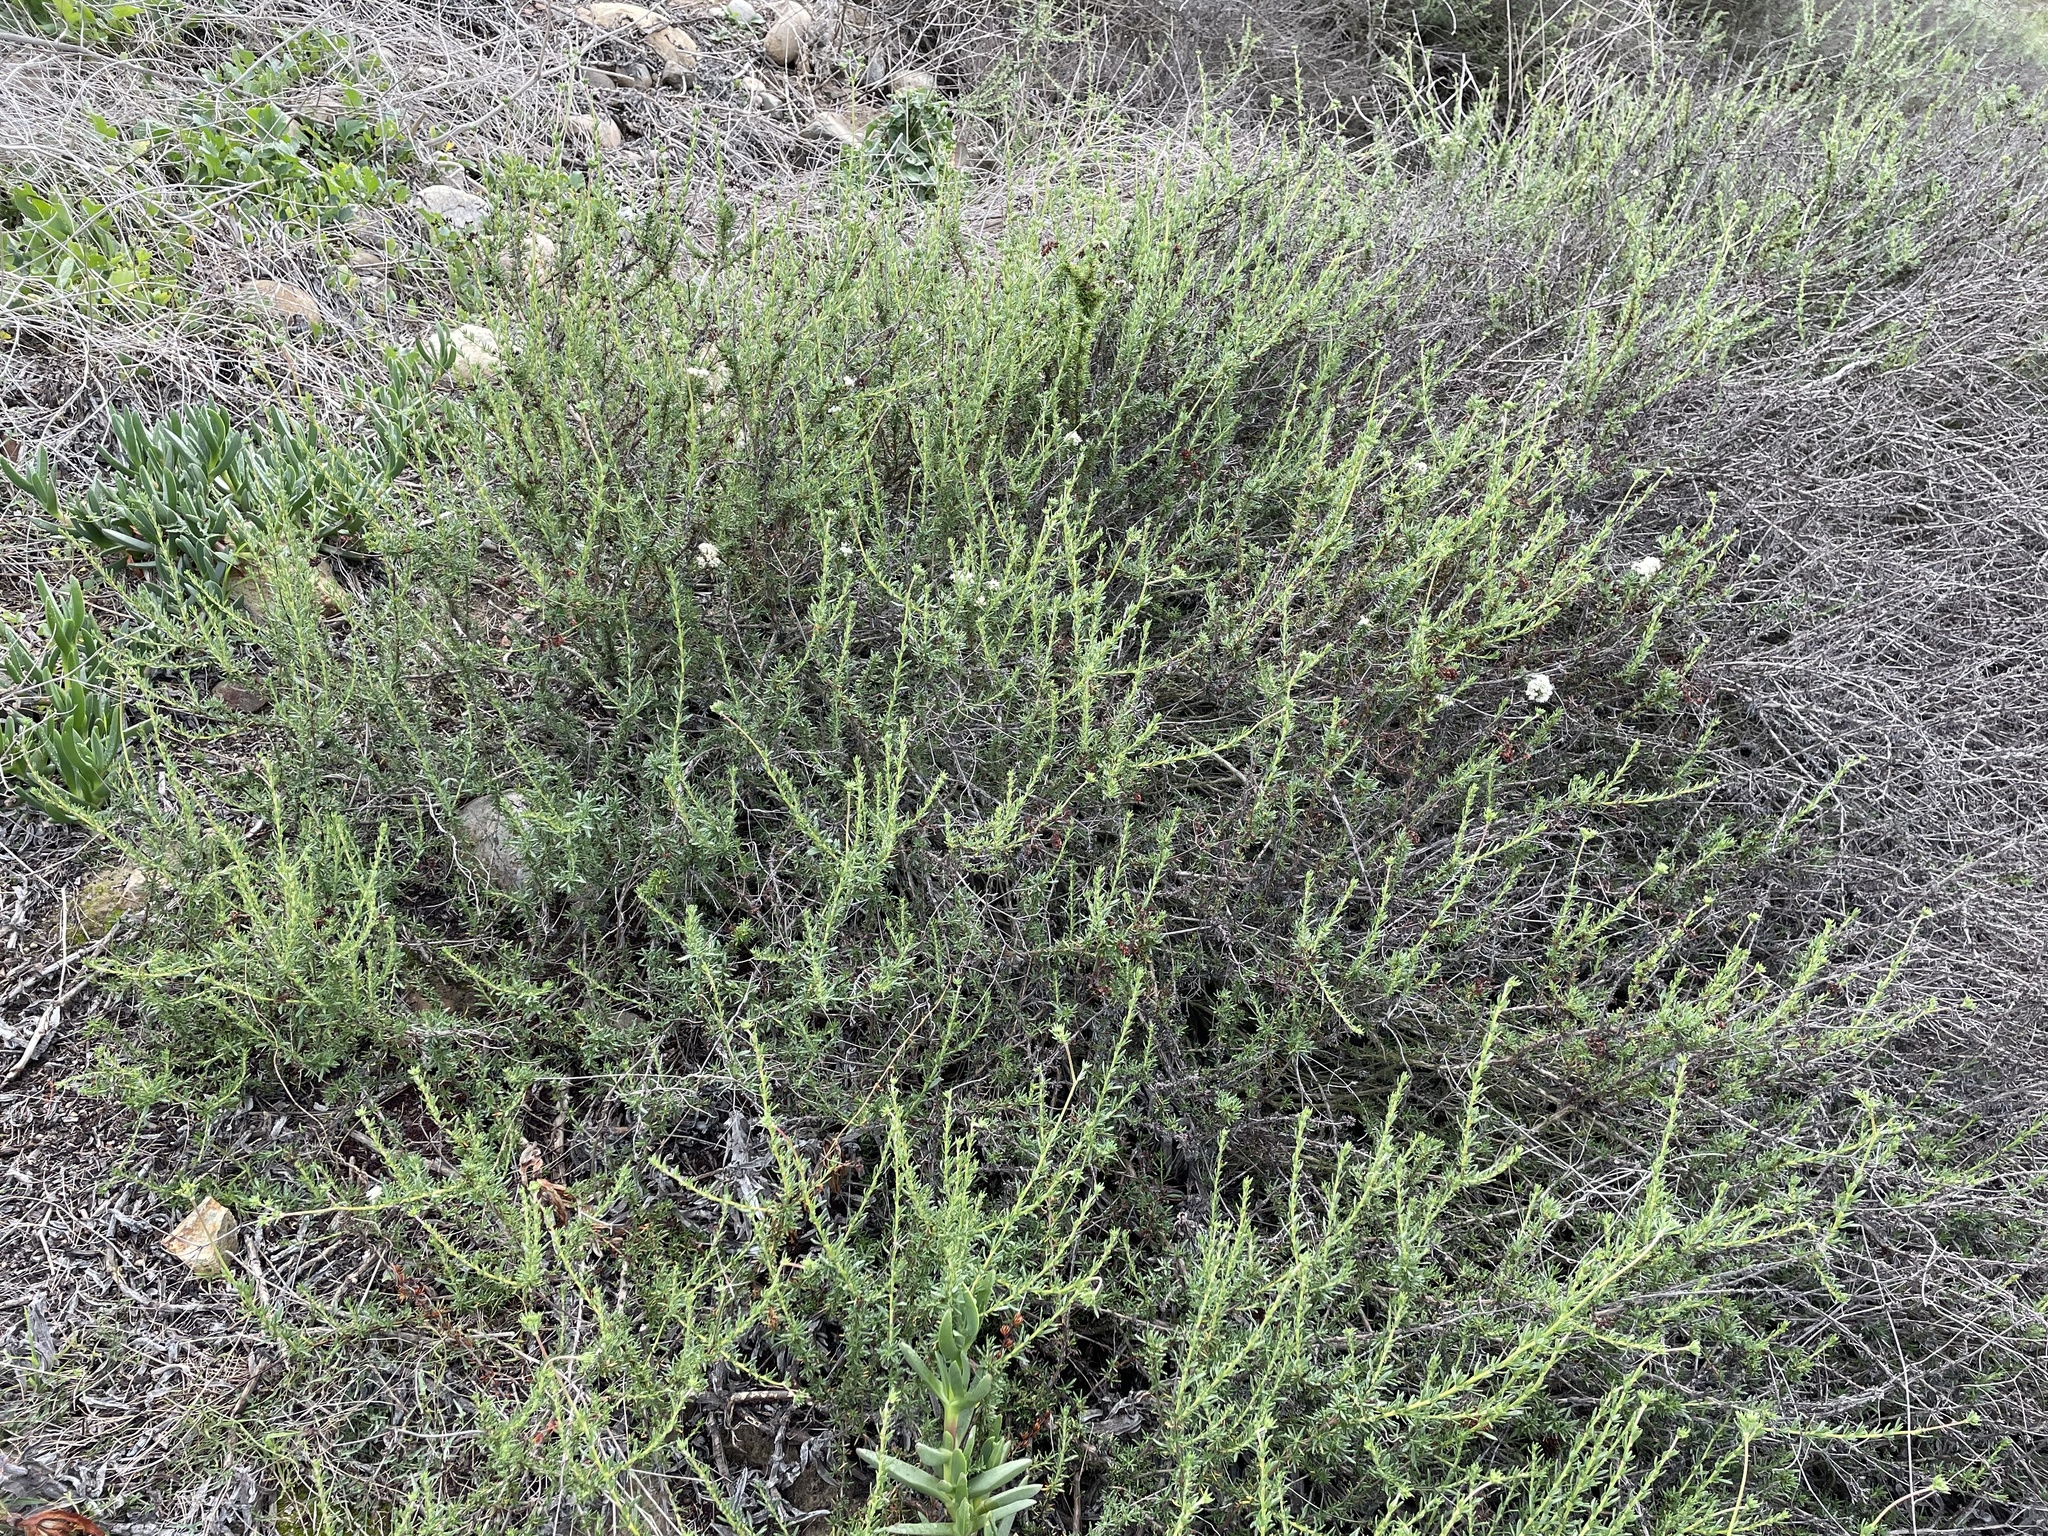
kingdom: Plantae
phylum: Tracheophyta
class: Magnoliopsida
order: Caryophyllales
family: Polygonaceae
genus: Eriogonum
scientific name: Eriogonum fasciculatum
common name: California wild buckwheat
